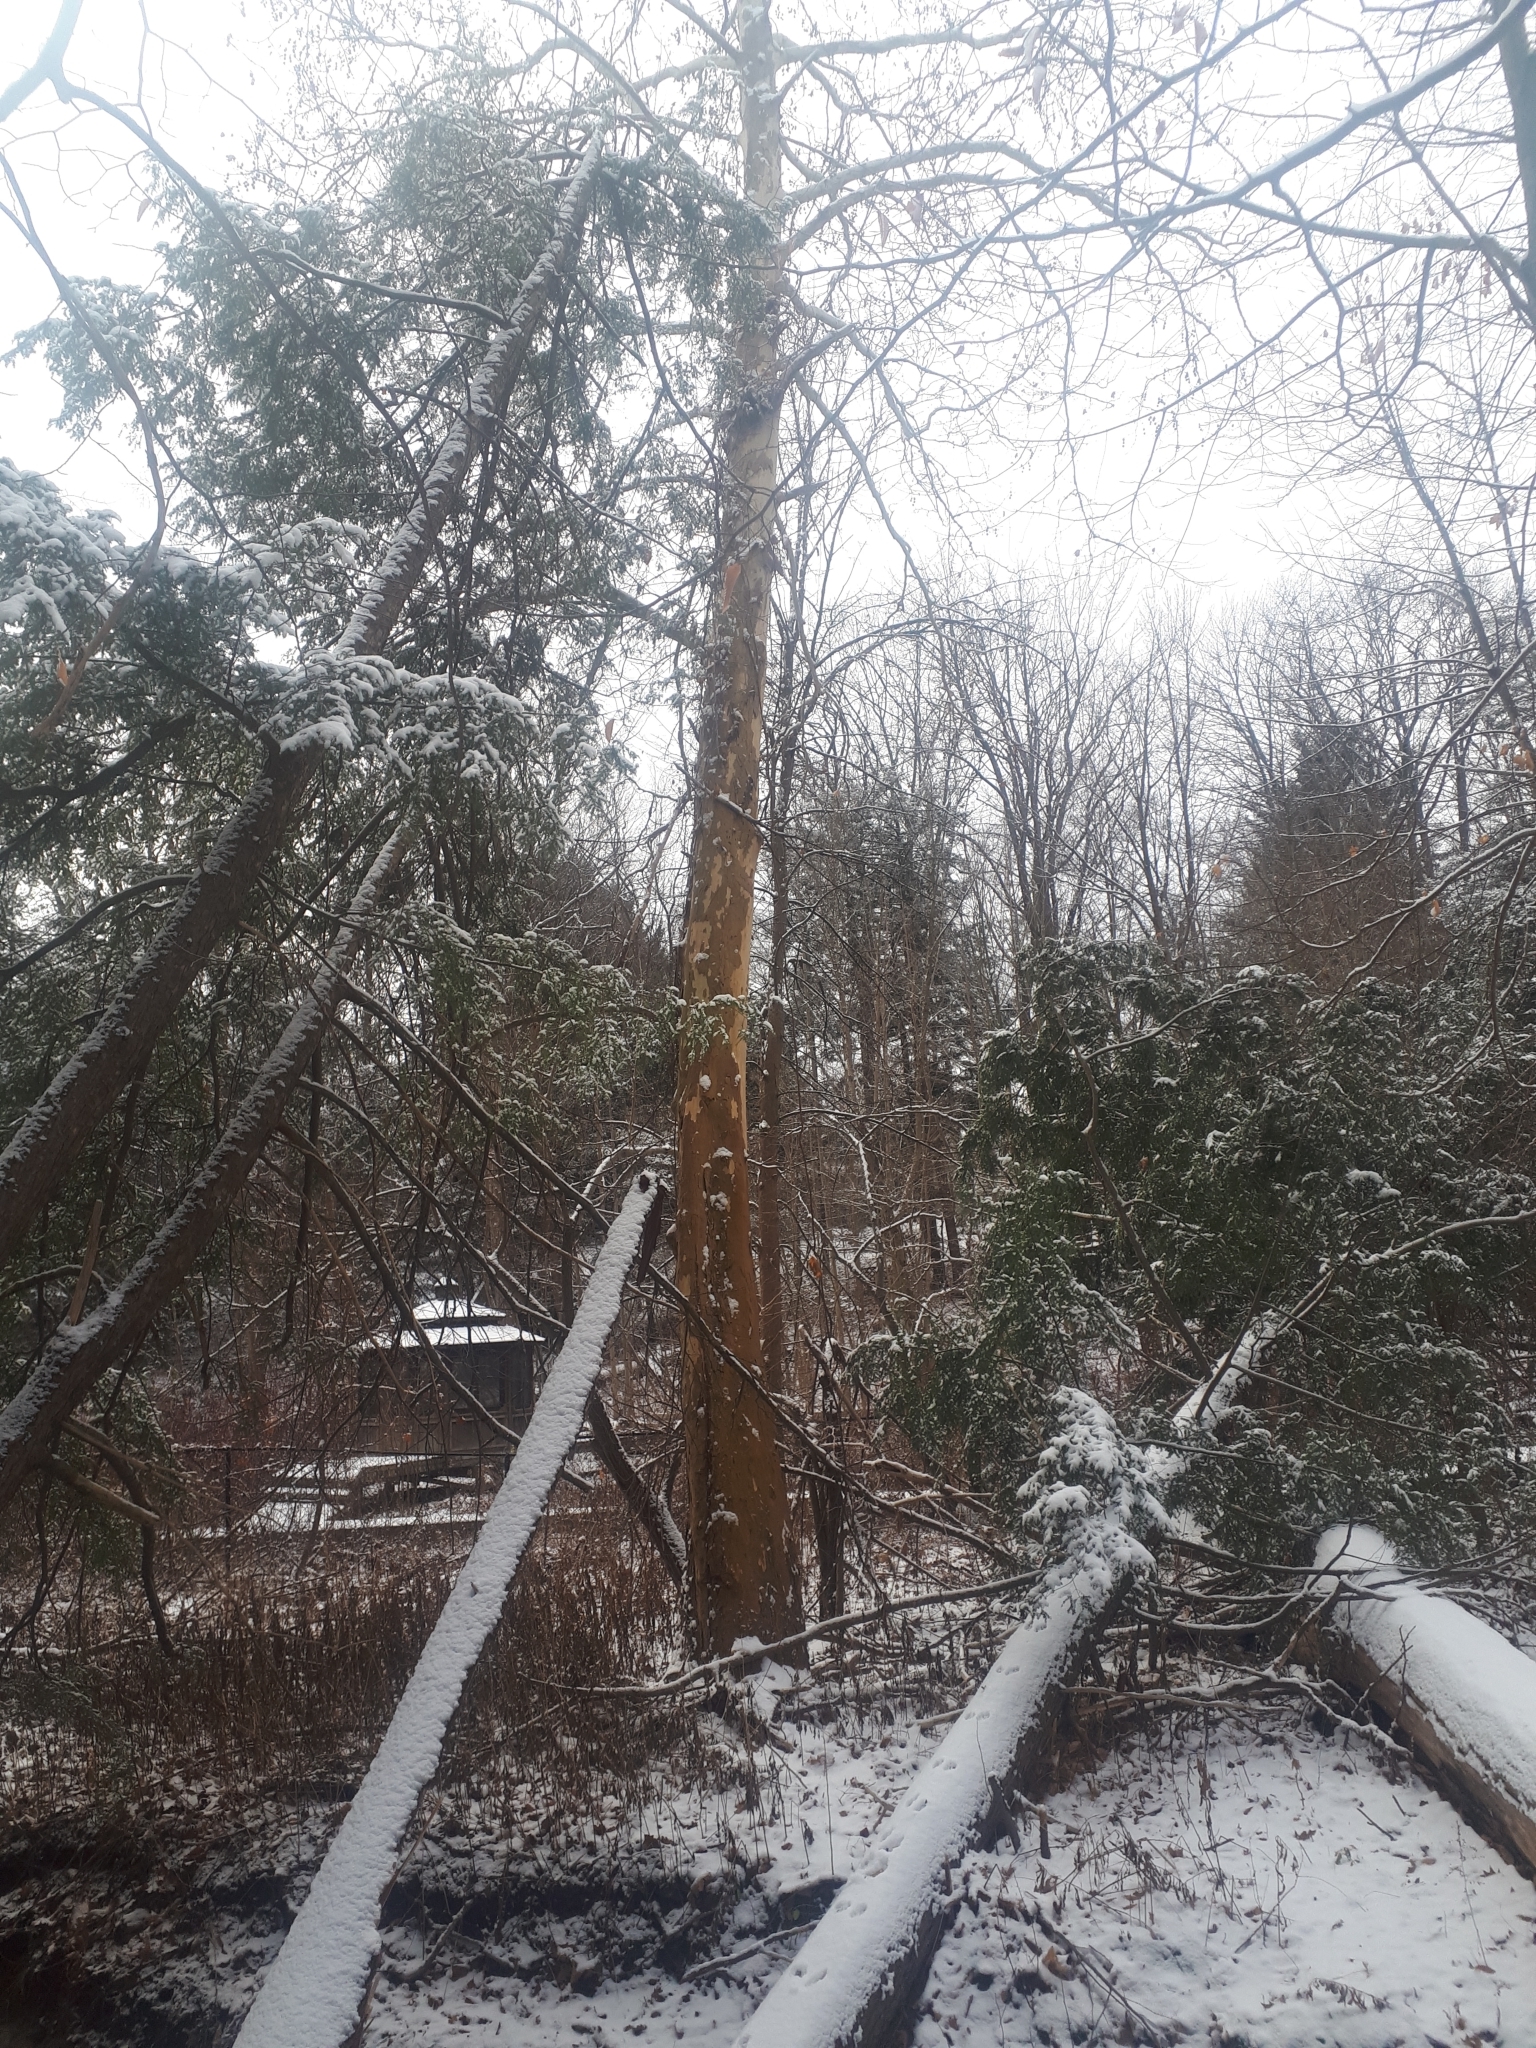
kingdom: Plantae
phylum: Tracheophyta
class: Magnoliopsida
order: Proteales
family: Platanaceae
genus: Platanus
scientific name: Platanus occidentalis
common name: American sycamore
